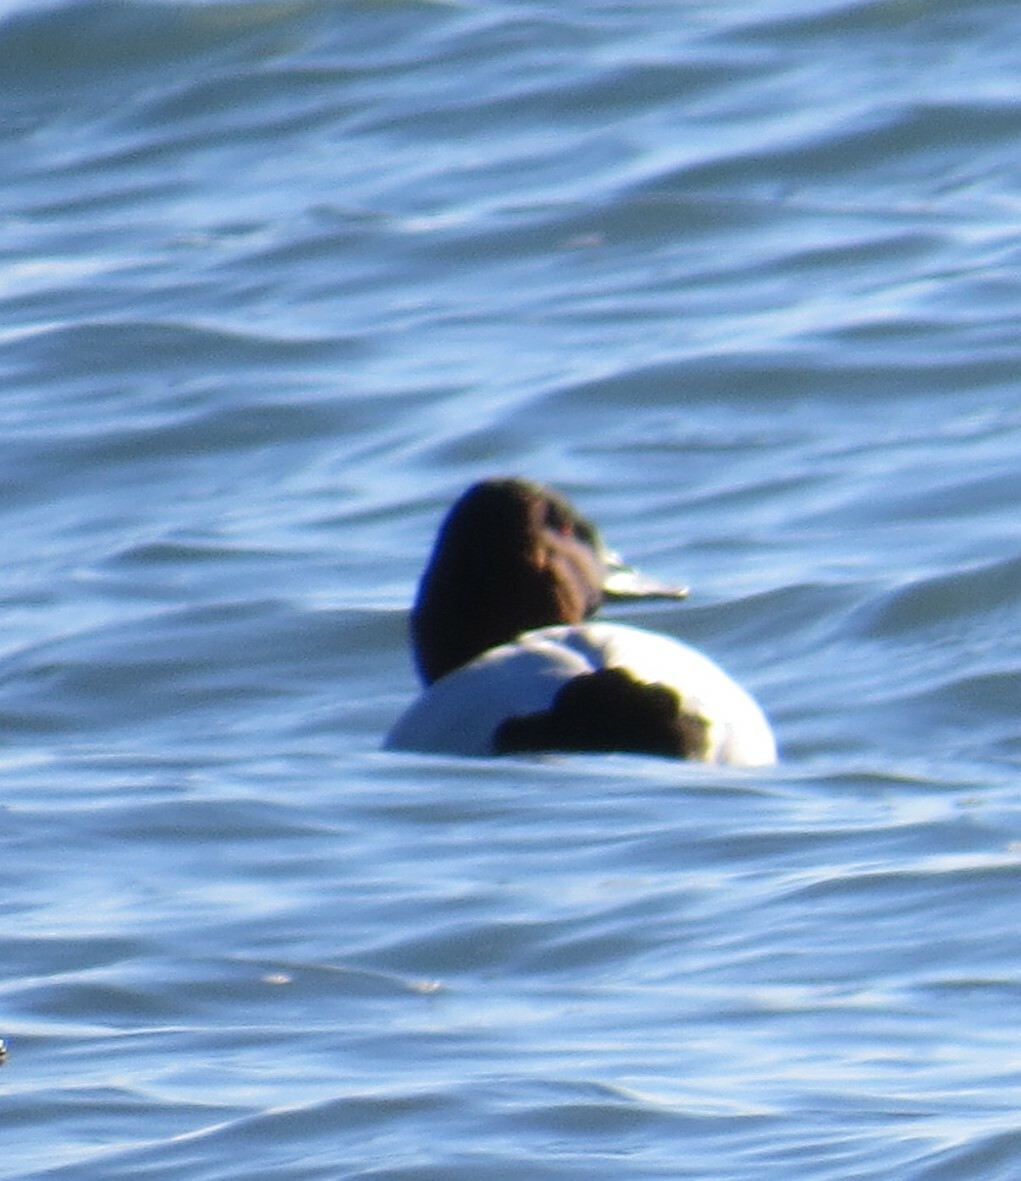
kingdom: Animalia
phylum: Chordata
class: Aves
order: Anseriformes
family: Anatidae
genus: Aythya
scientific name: Aythya valisineria
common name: Canvasback
